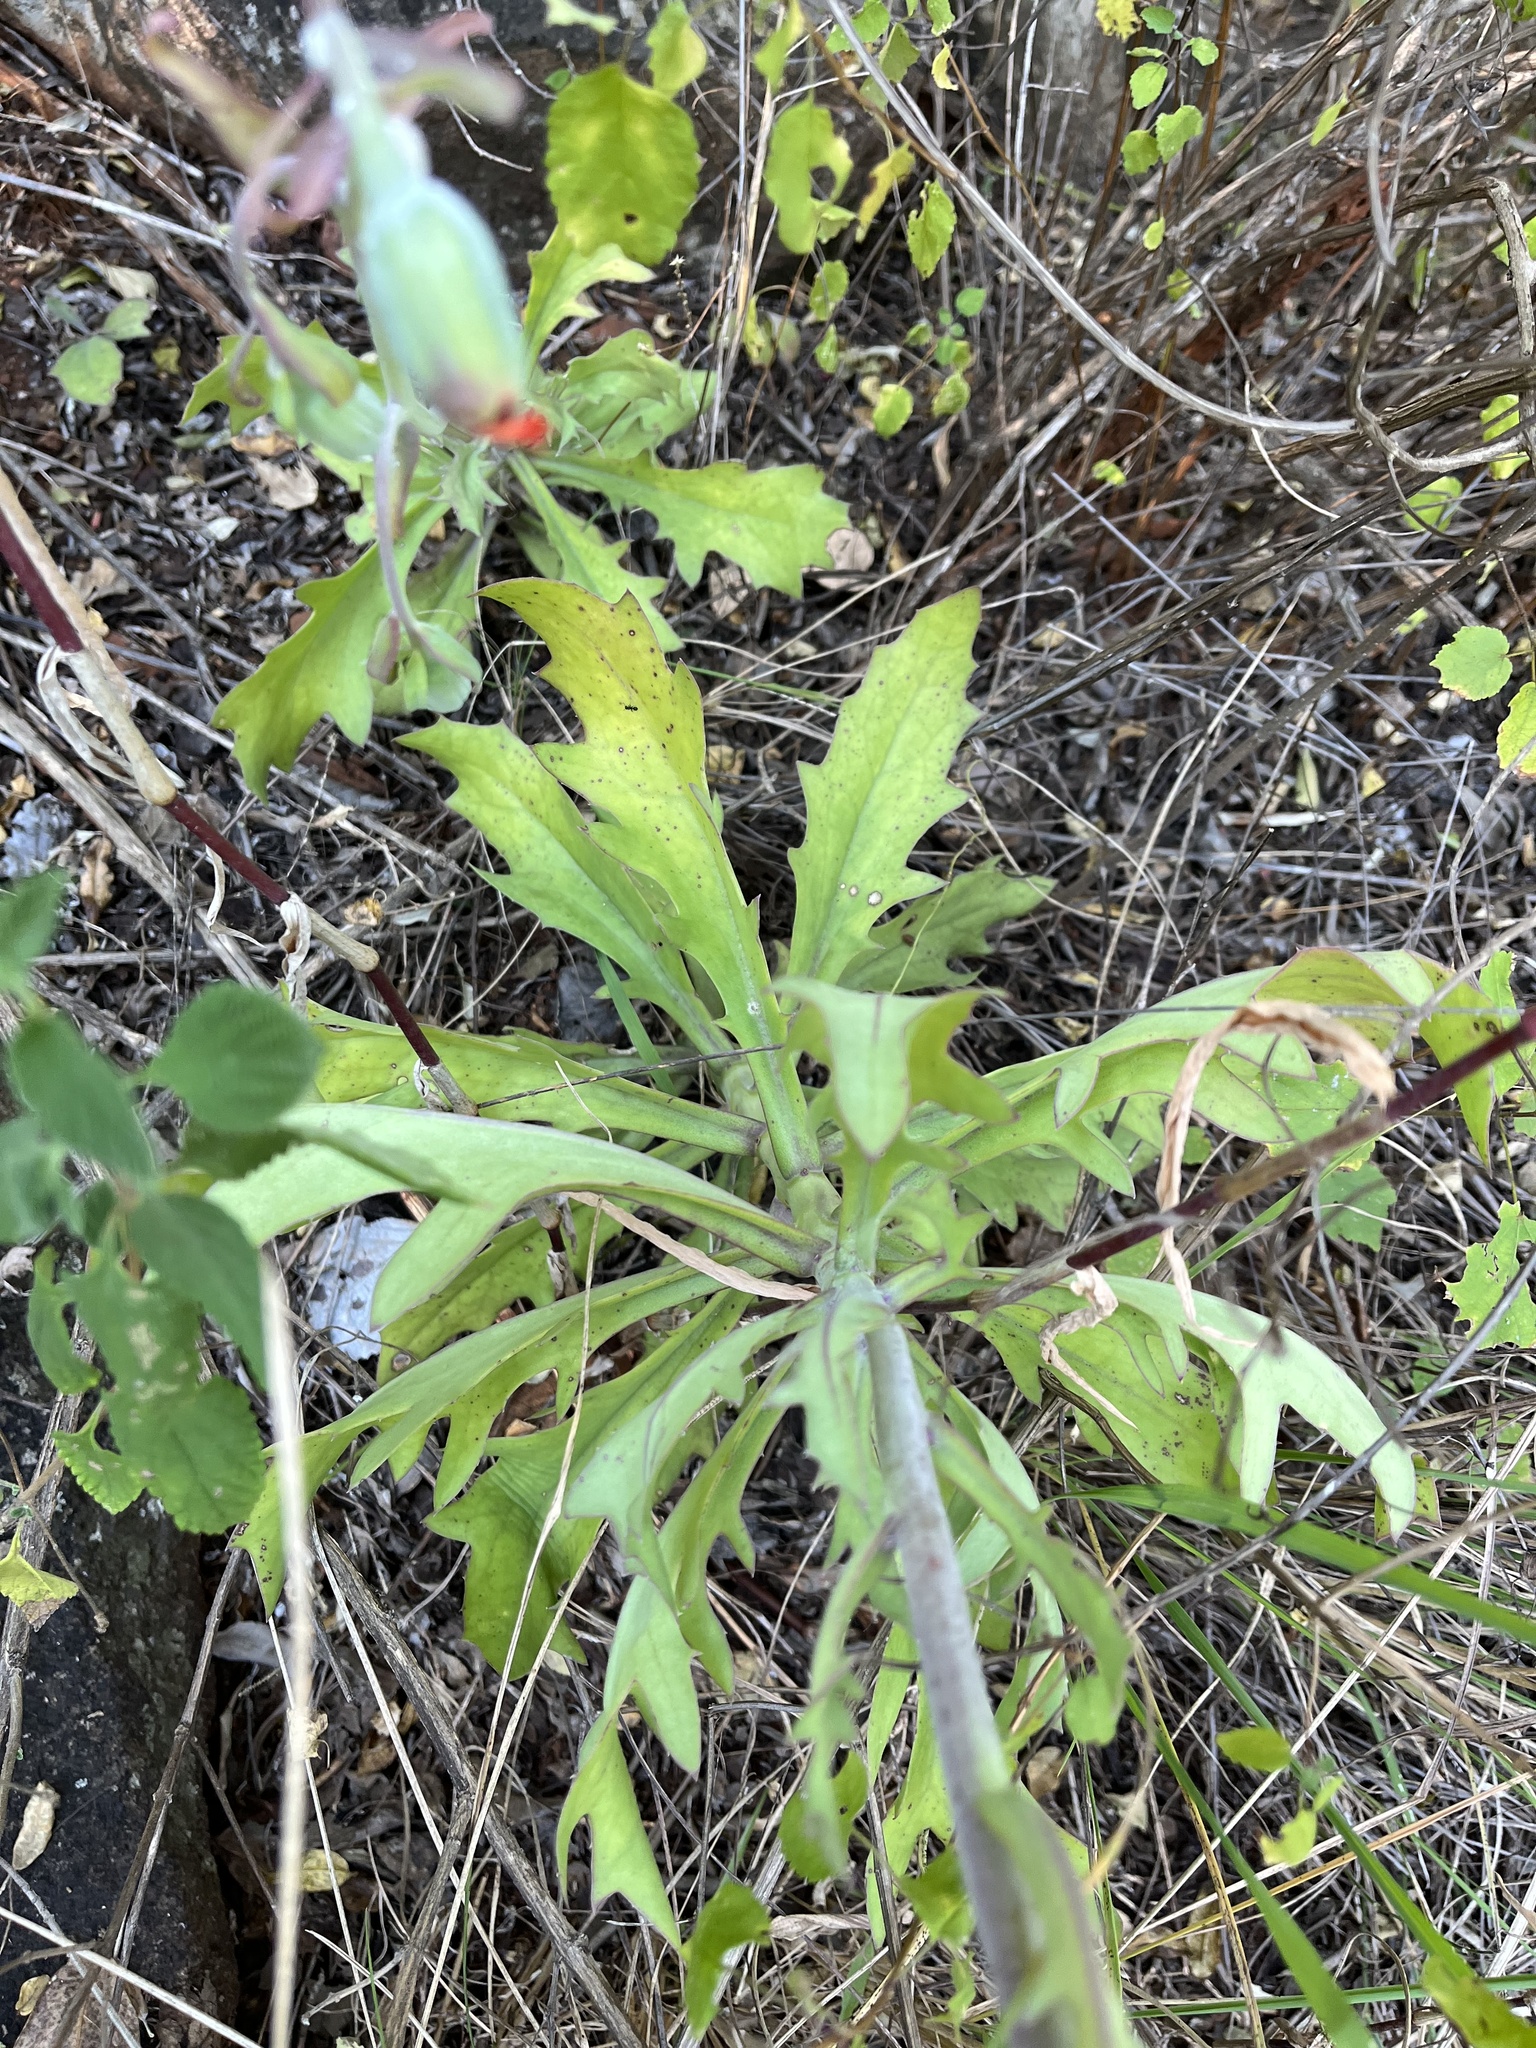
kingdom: Plantae
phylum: Tracheophyta
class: Magnoliopsida
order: Asterales
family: Asteraceae
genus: Kleinia
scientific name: Kleinia fulgens
